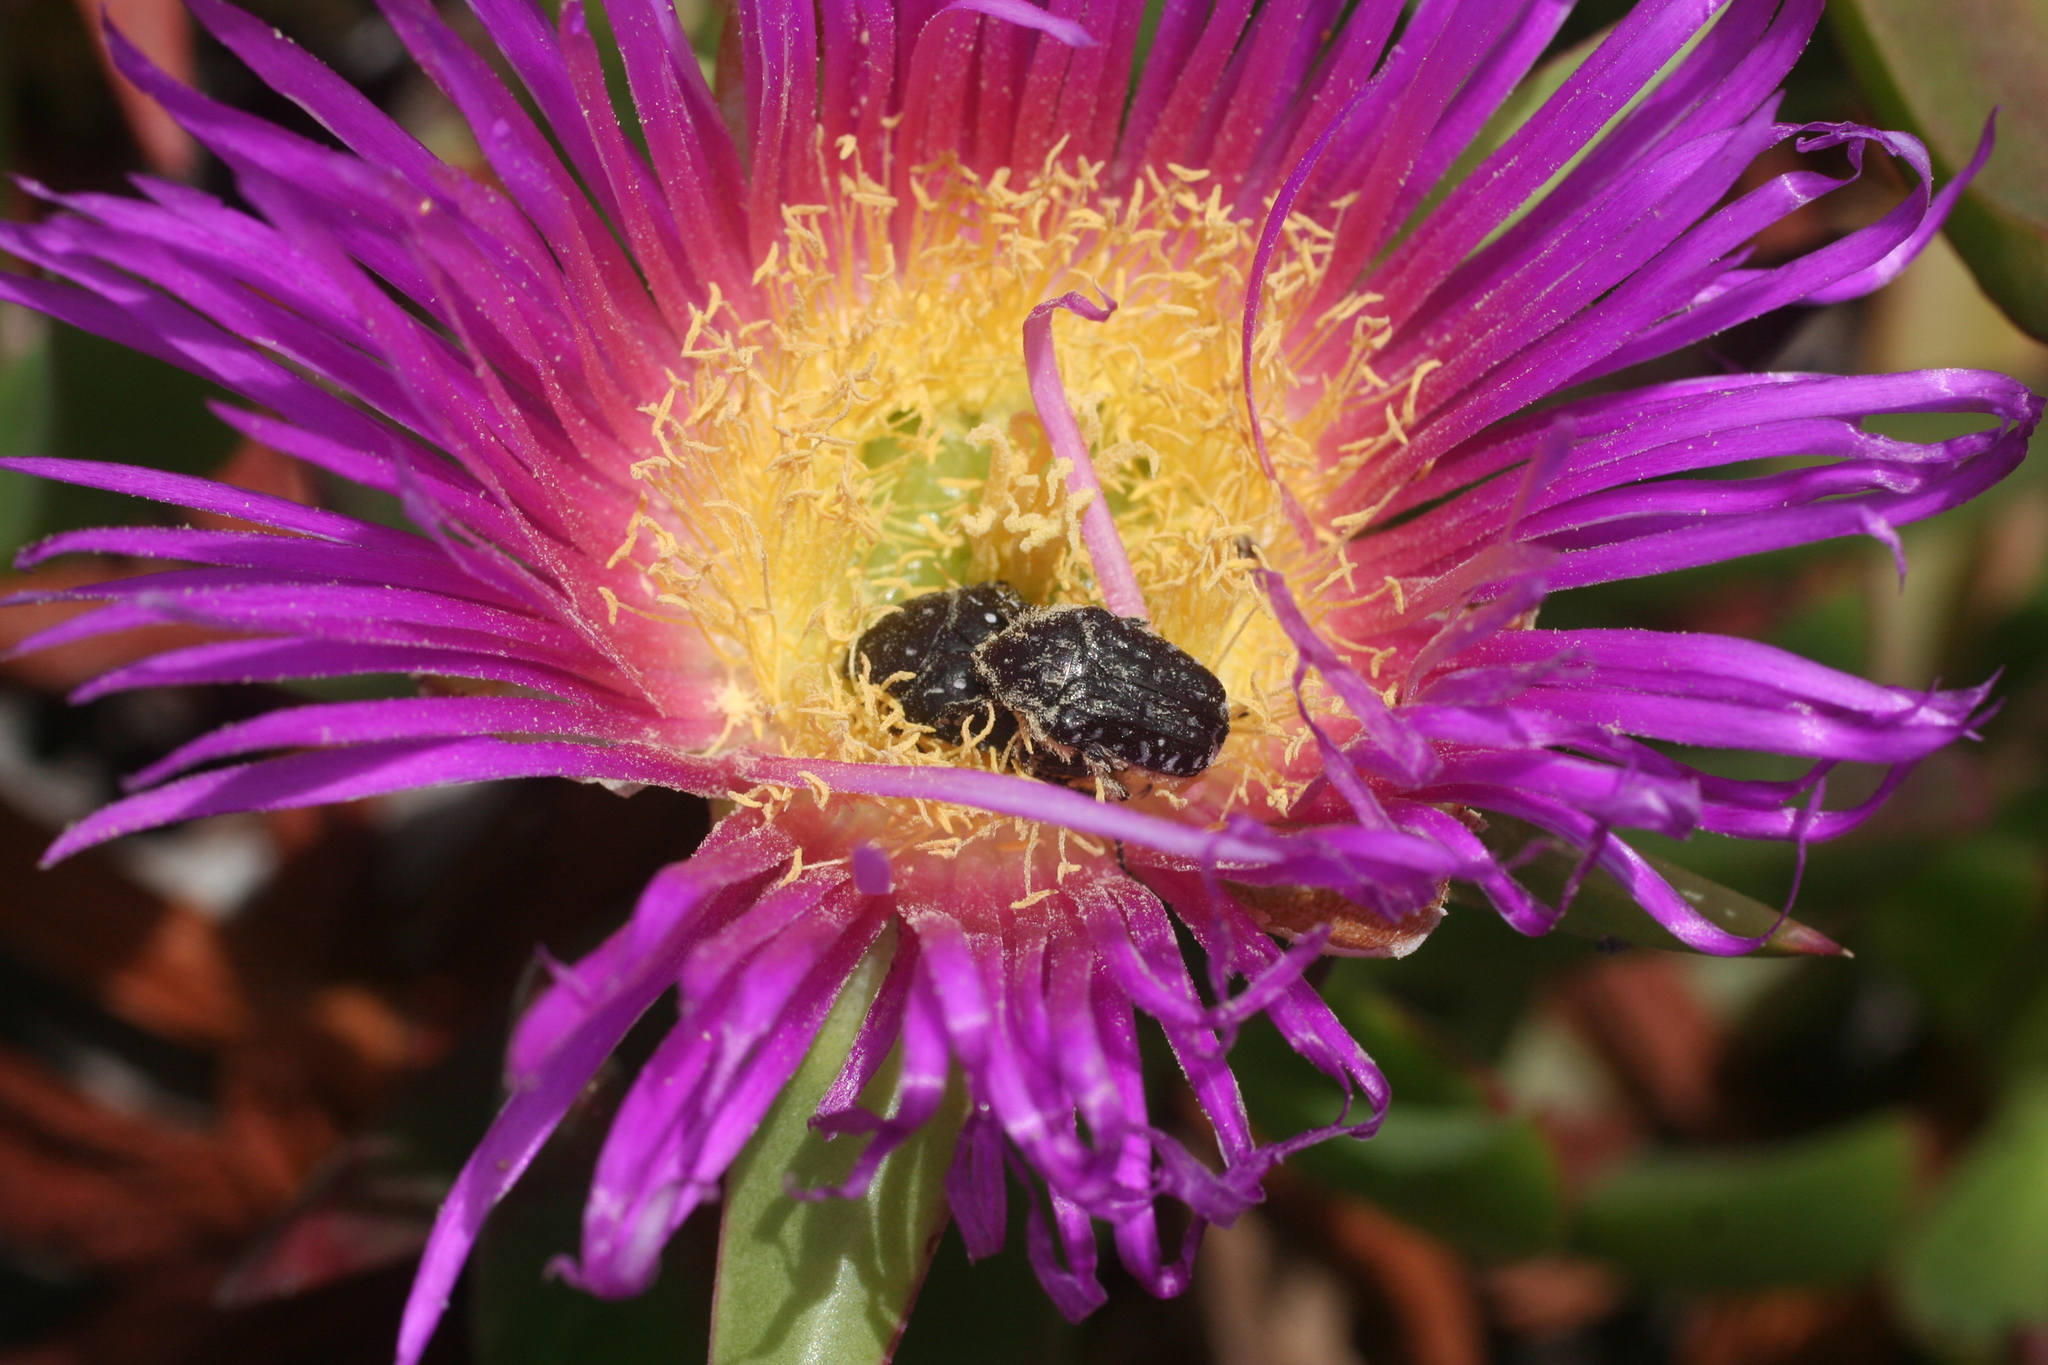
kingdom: Plantae
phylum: Tracheophyta
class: Magnoliopsida
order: Caryophyllales
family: Aizoaceae
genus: Carpobrotus
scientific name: Carpobrotus acinaciformis
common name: Sally-my-handsome
